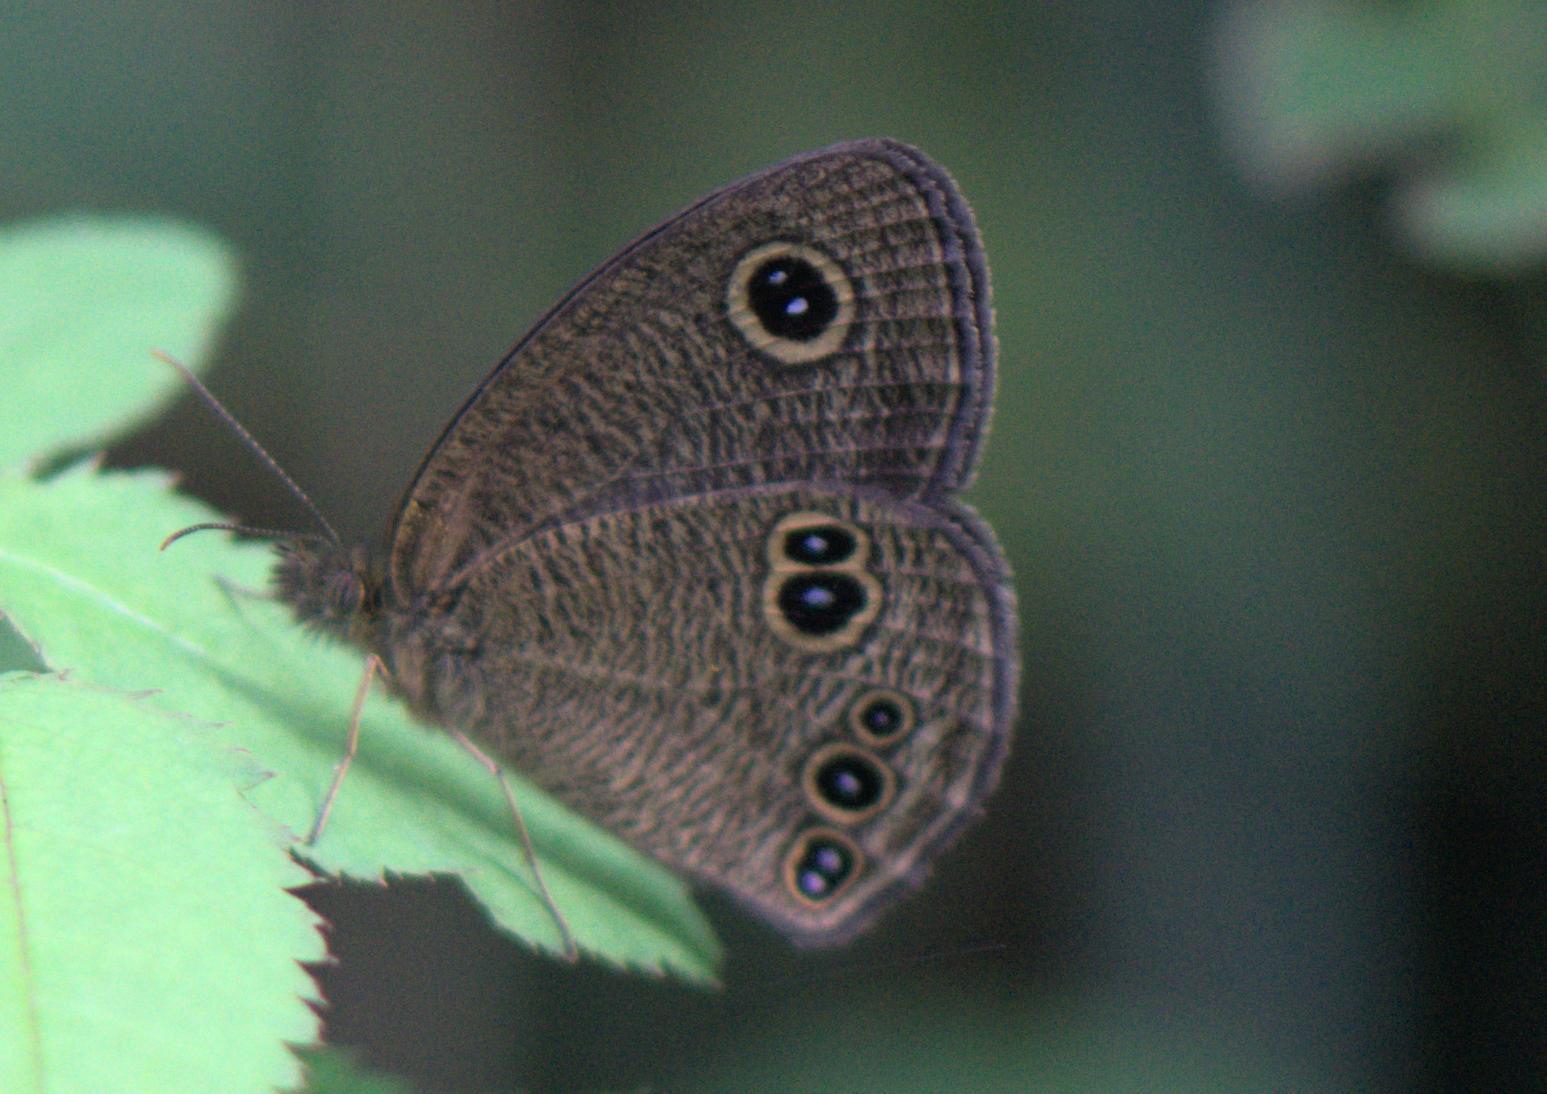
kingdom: Animalia
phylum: Arthropoda
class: Insecta
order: Lepidoptera
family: Nymphalidae
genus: Ypthima
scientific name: Ypthima nikaea
